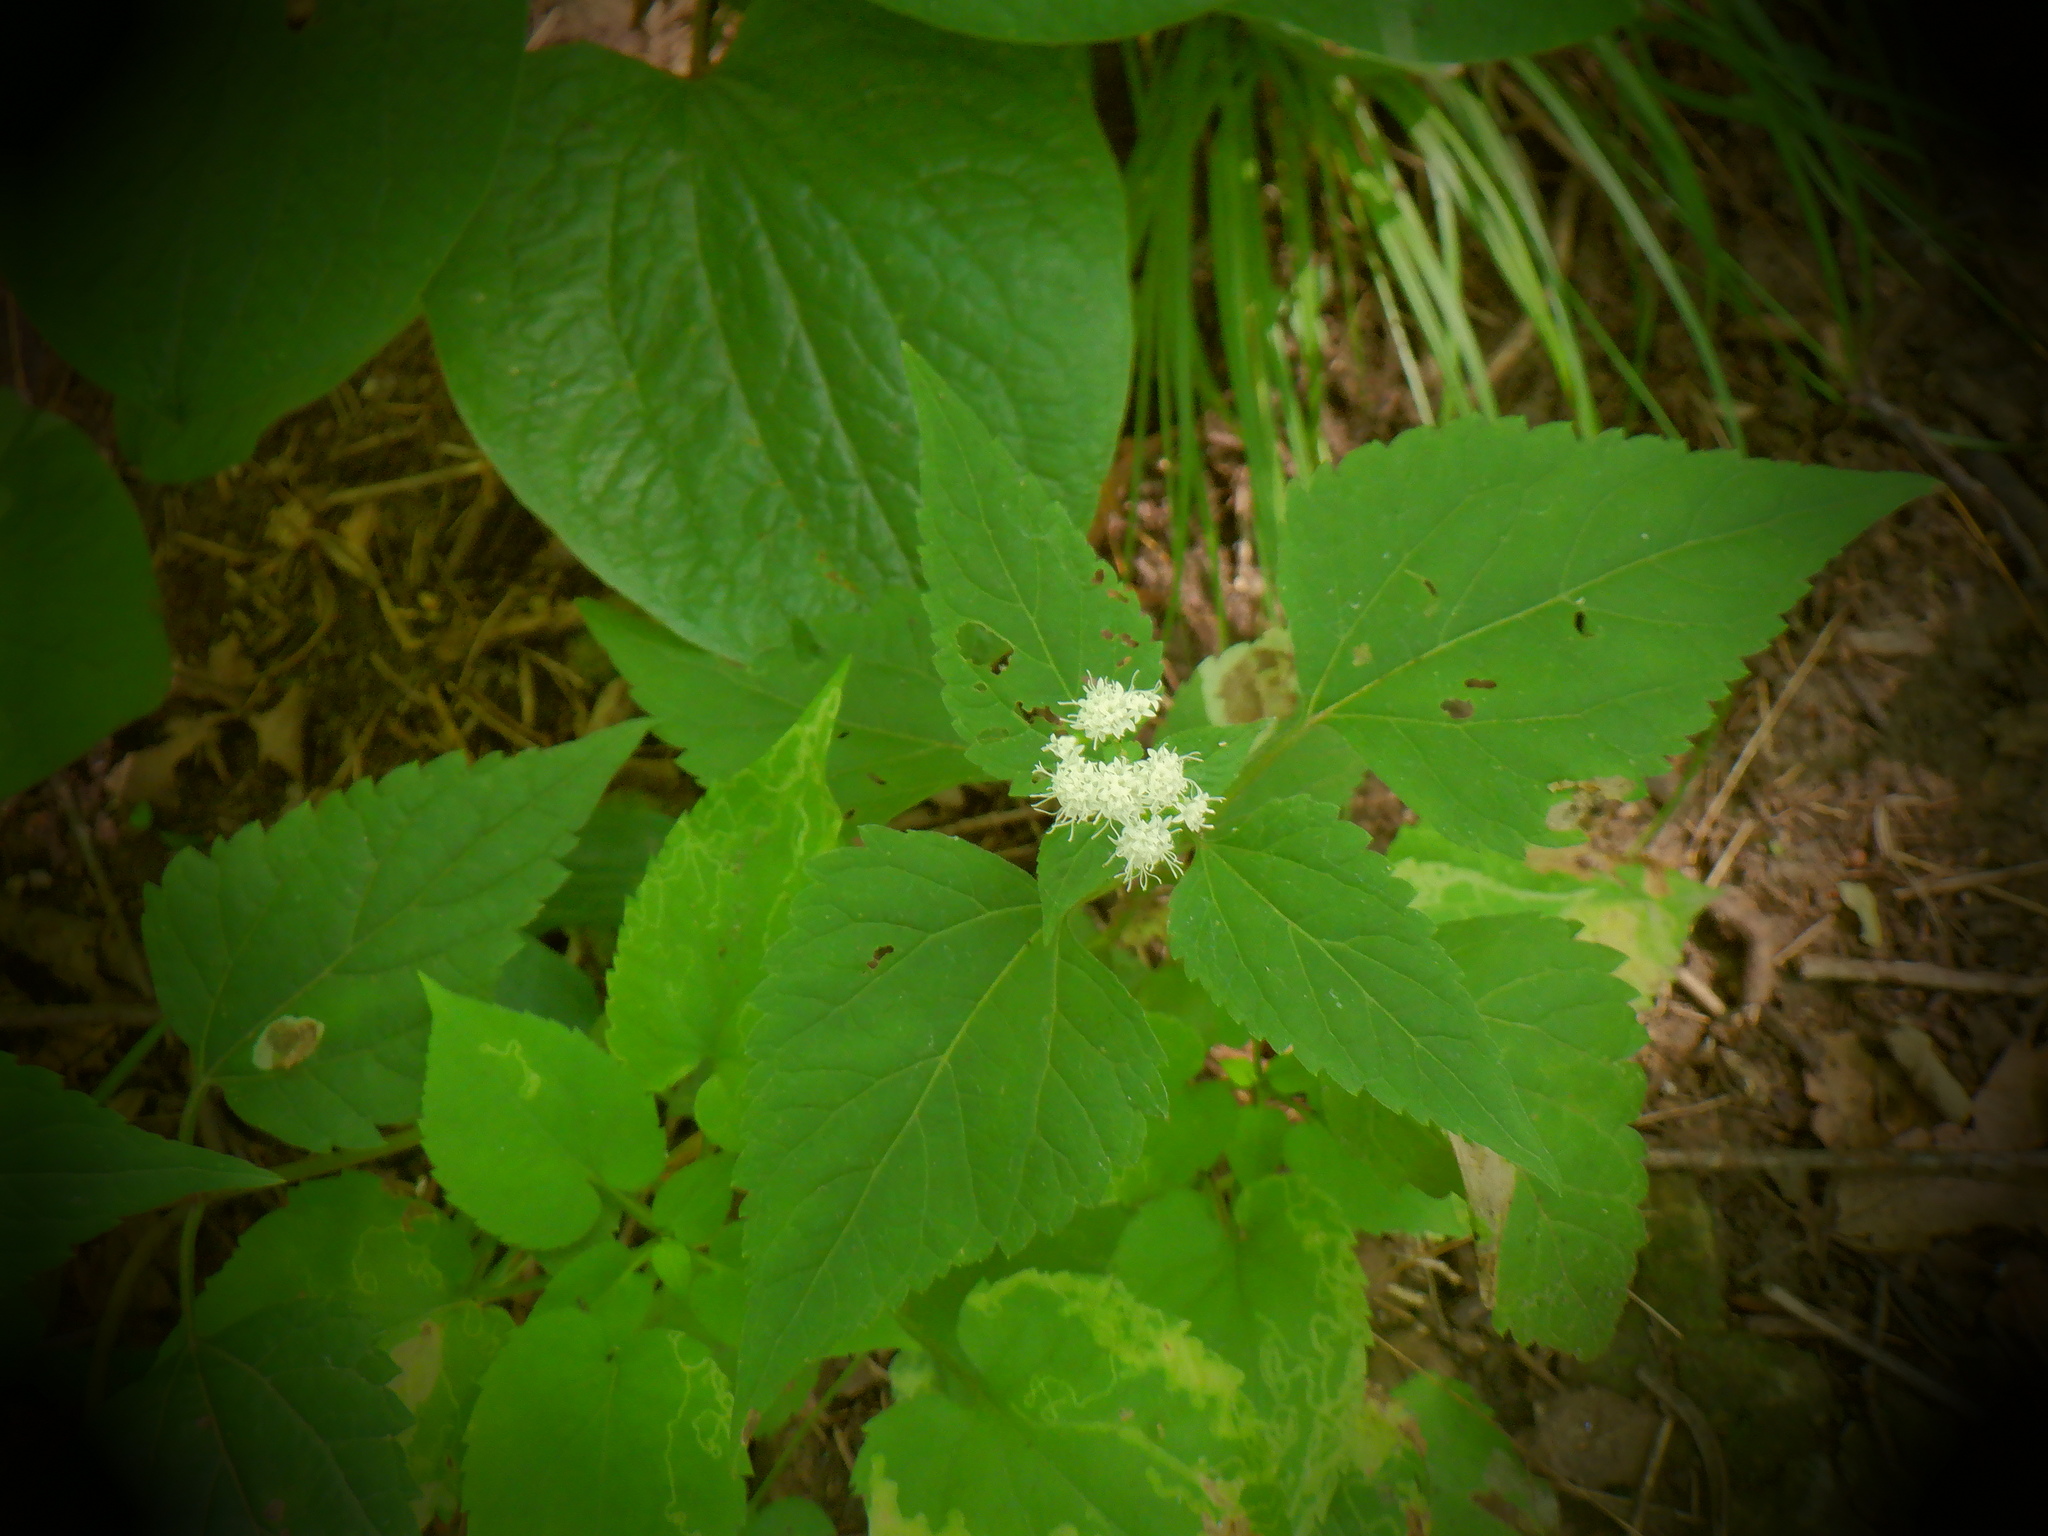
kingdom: Plantae
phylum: Tracheophyta
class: Magnoliopsida
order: Asterales
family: Asteraceae
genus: Ageratina
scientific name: Ageratina altissima
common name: White snakeroot
